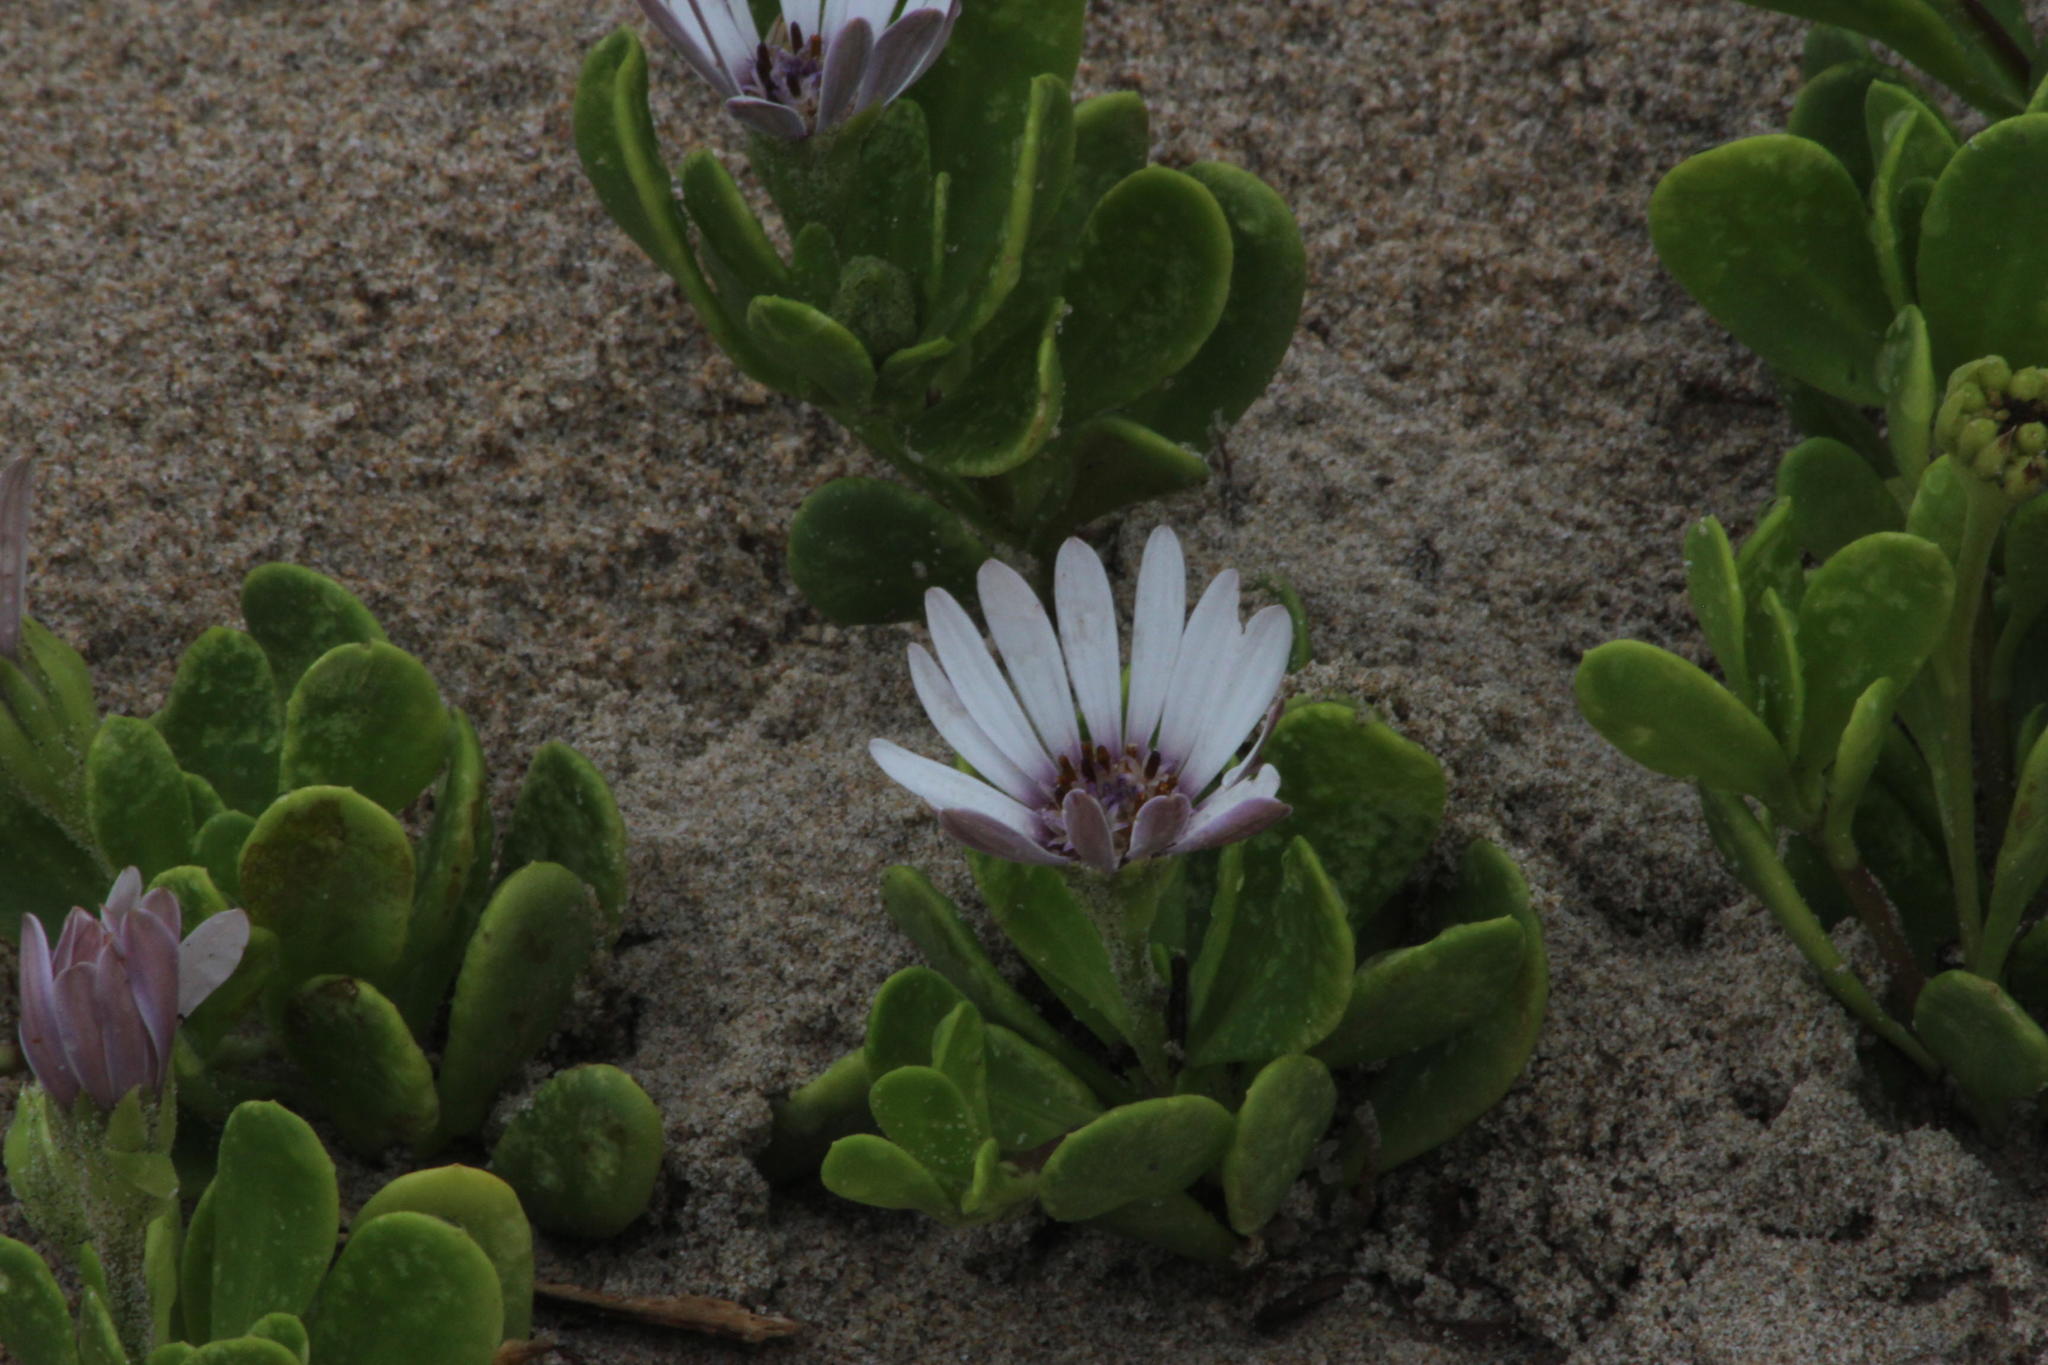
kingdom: Plantae
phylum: Tracheophyta
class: Magnoliopsida
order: Asterales
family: Asteraceae
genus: Dimorphotheca
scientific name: Dimorphotheca fruticosa
